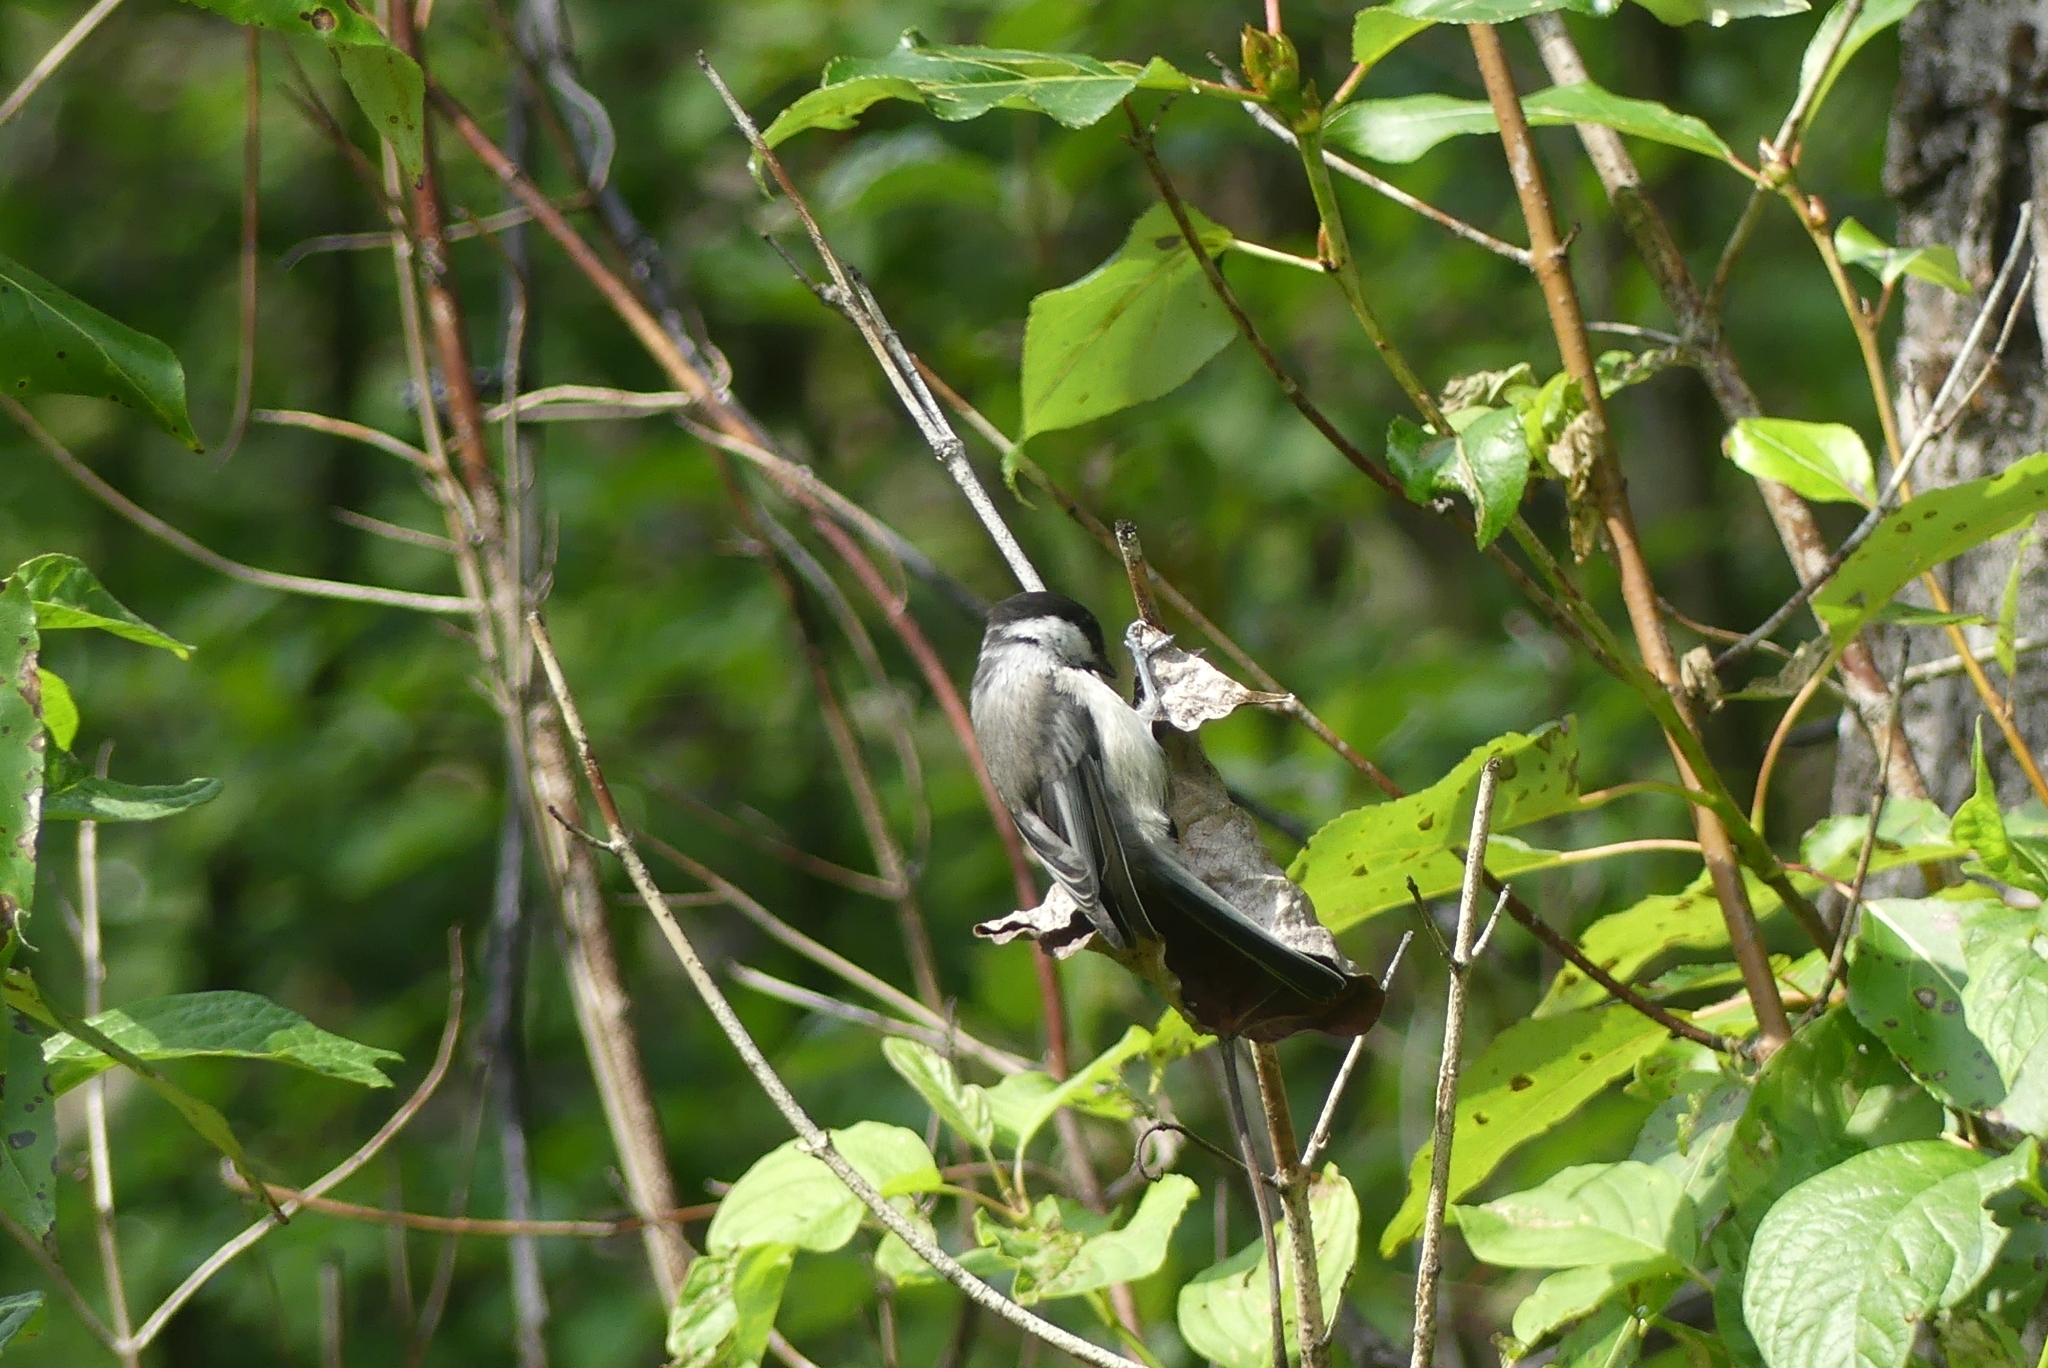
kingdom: Animalia
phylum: Chordata
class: Aves
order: Passeriformes
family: Paridae
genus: Poecile
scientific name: Poecile atricapillus
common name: Black-capped chickadee
